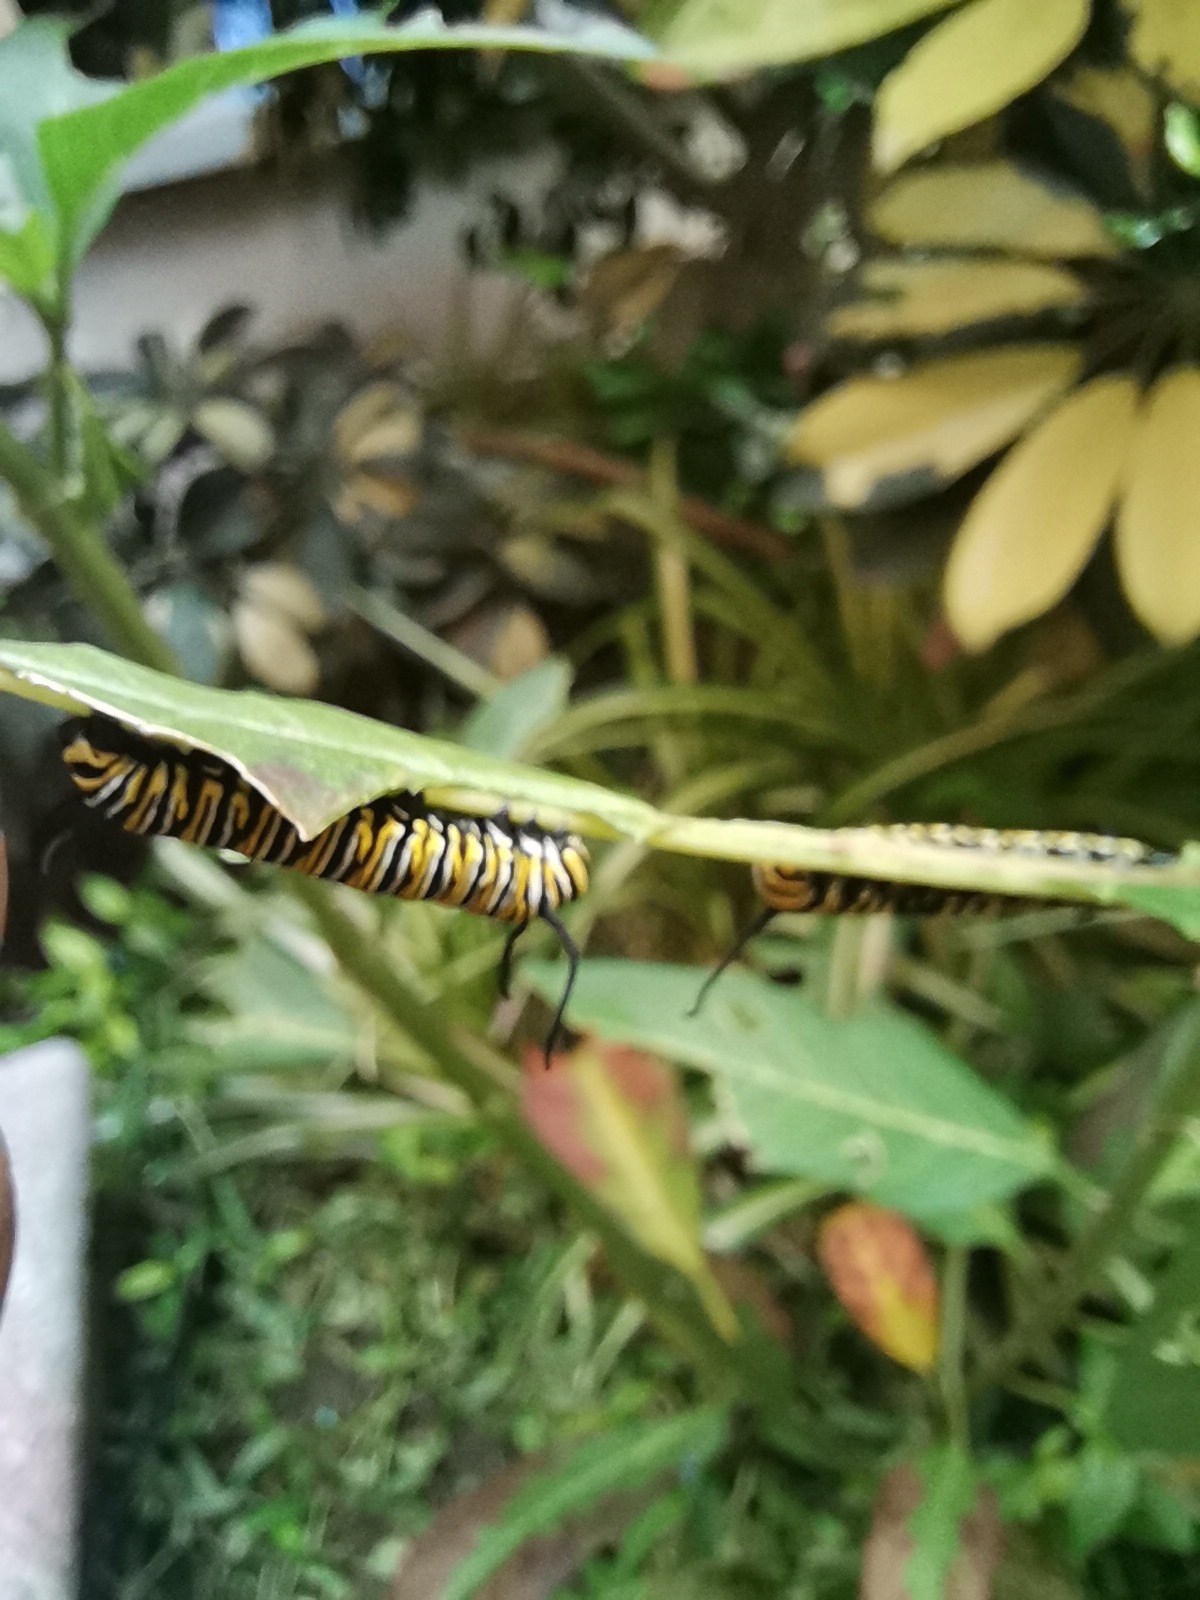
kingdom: Animalia
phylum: Arthropoda
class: Insecta
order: Lepidoptera
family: Nymphalidae
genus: Danaus
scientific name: Danaus plexippus
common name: Monarch
